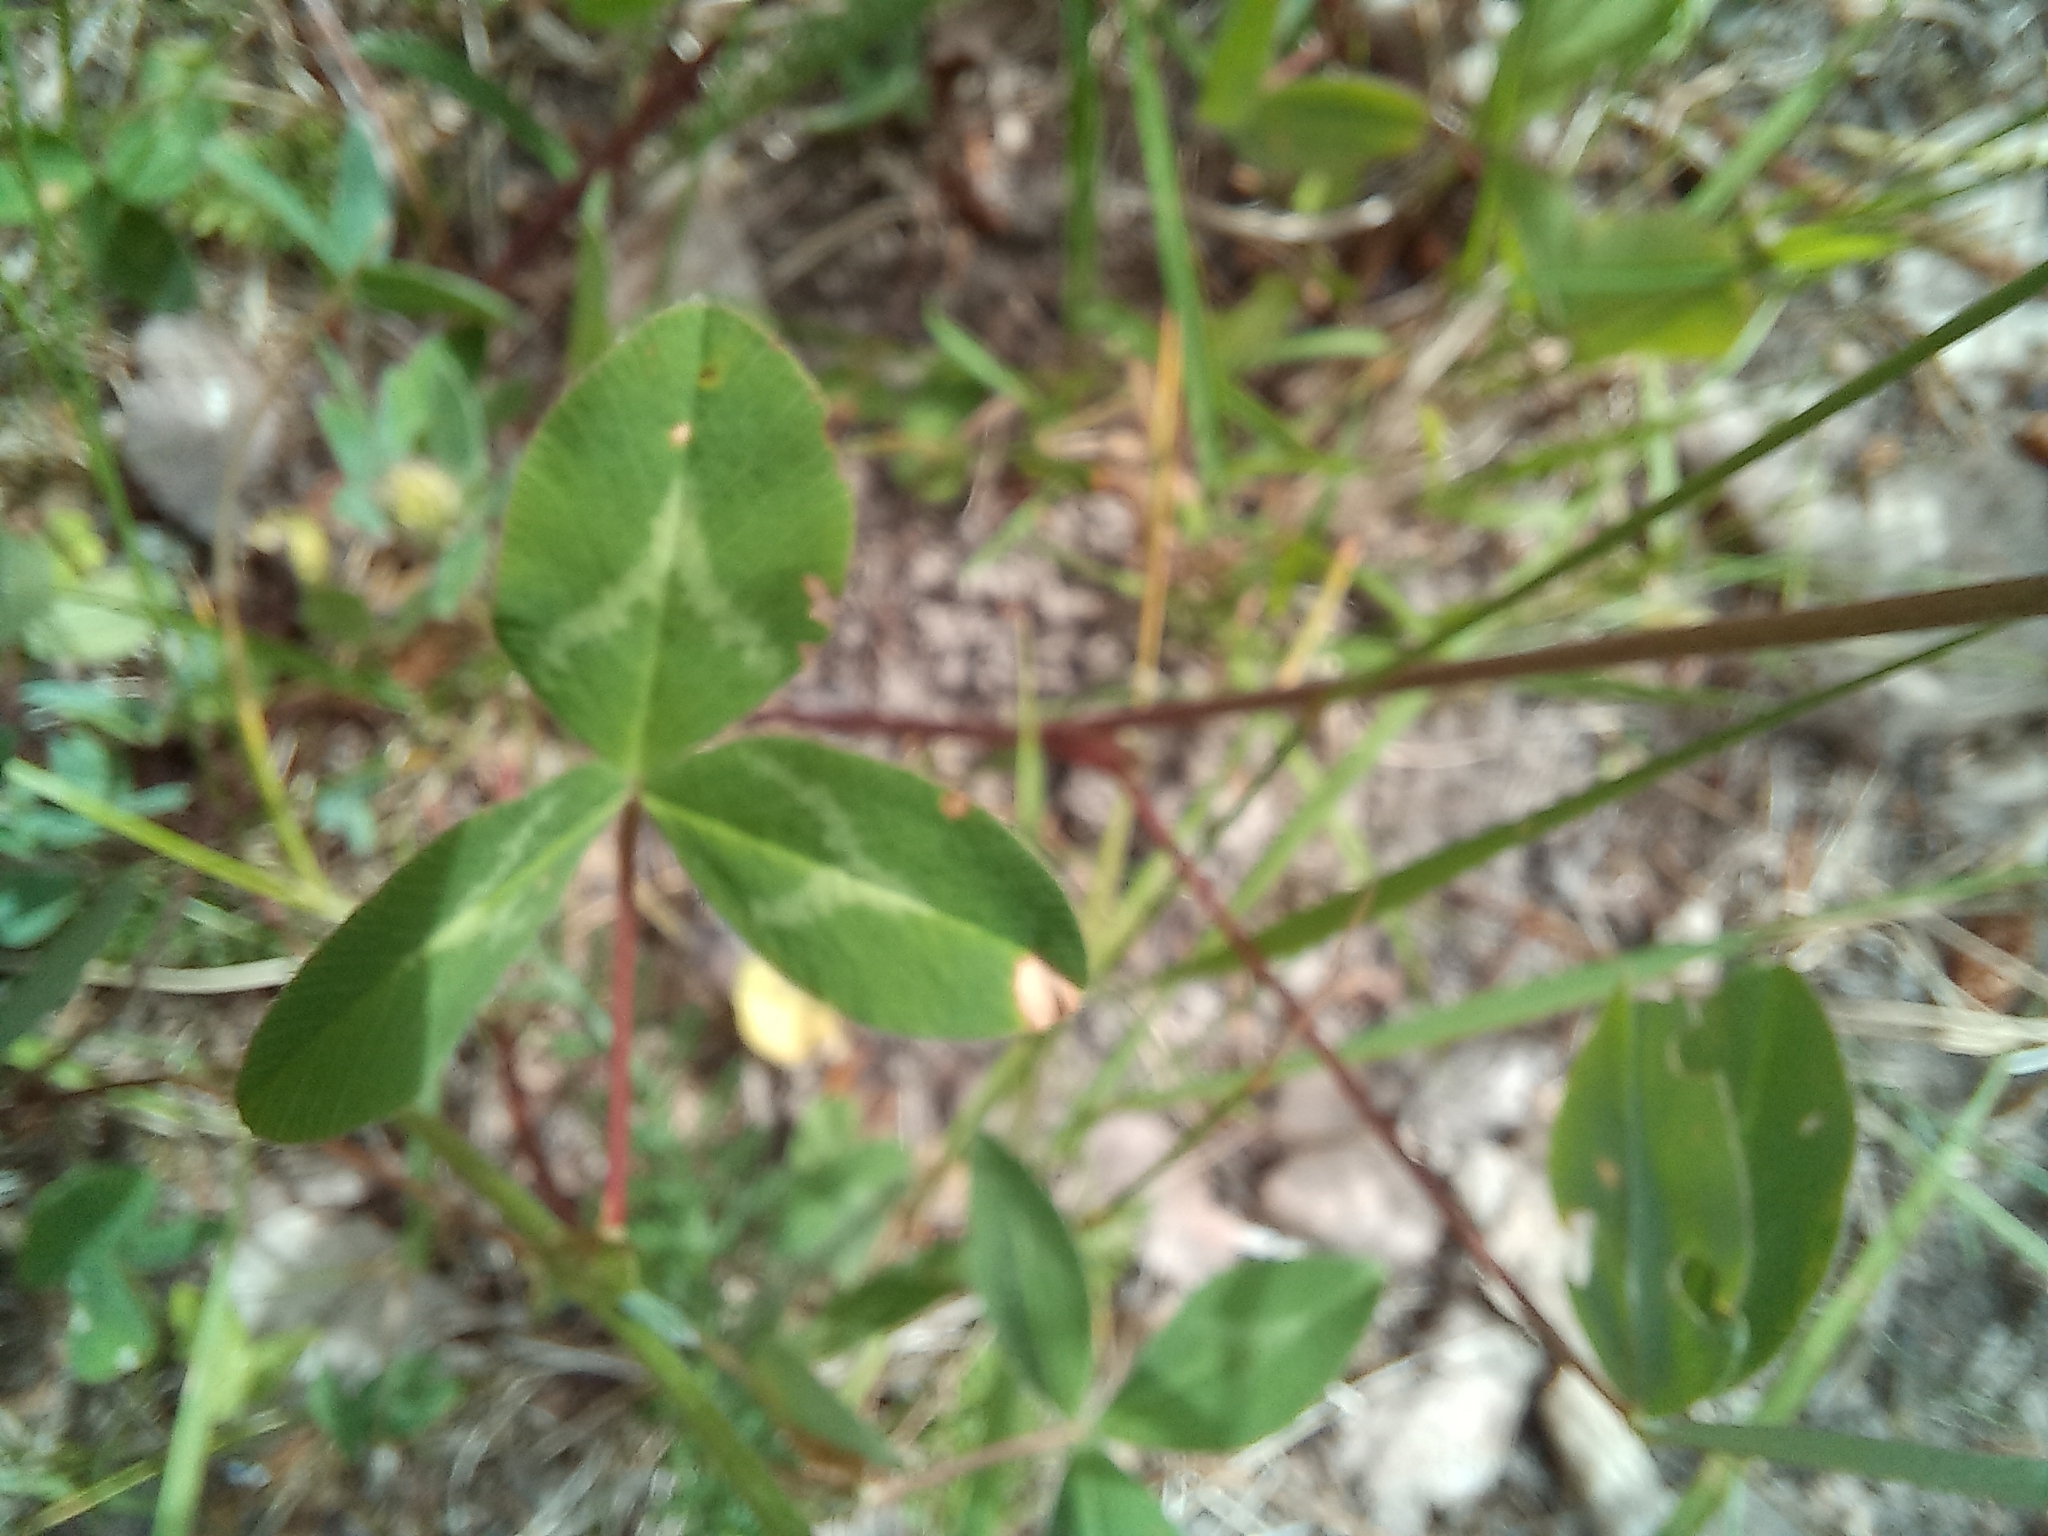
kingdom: Plantae
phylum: Tracheophyta
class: Magnoliopsida
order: Fabales
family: Fabaceae
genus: Trifolium
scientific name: Trifolium pratense
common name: Red clover
